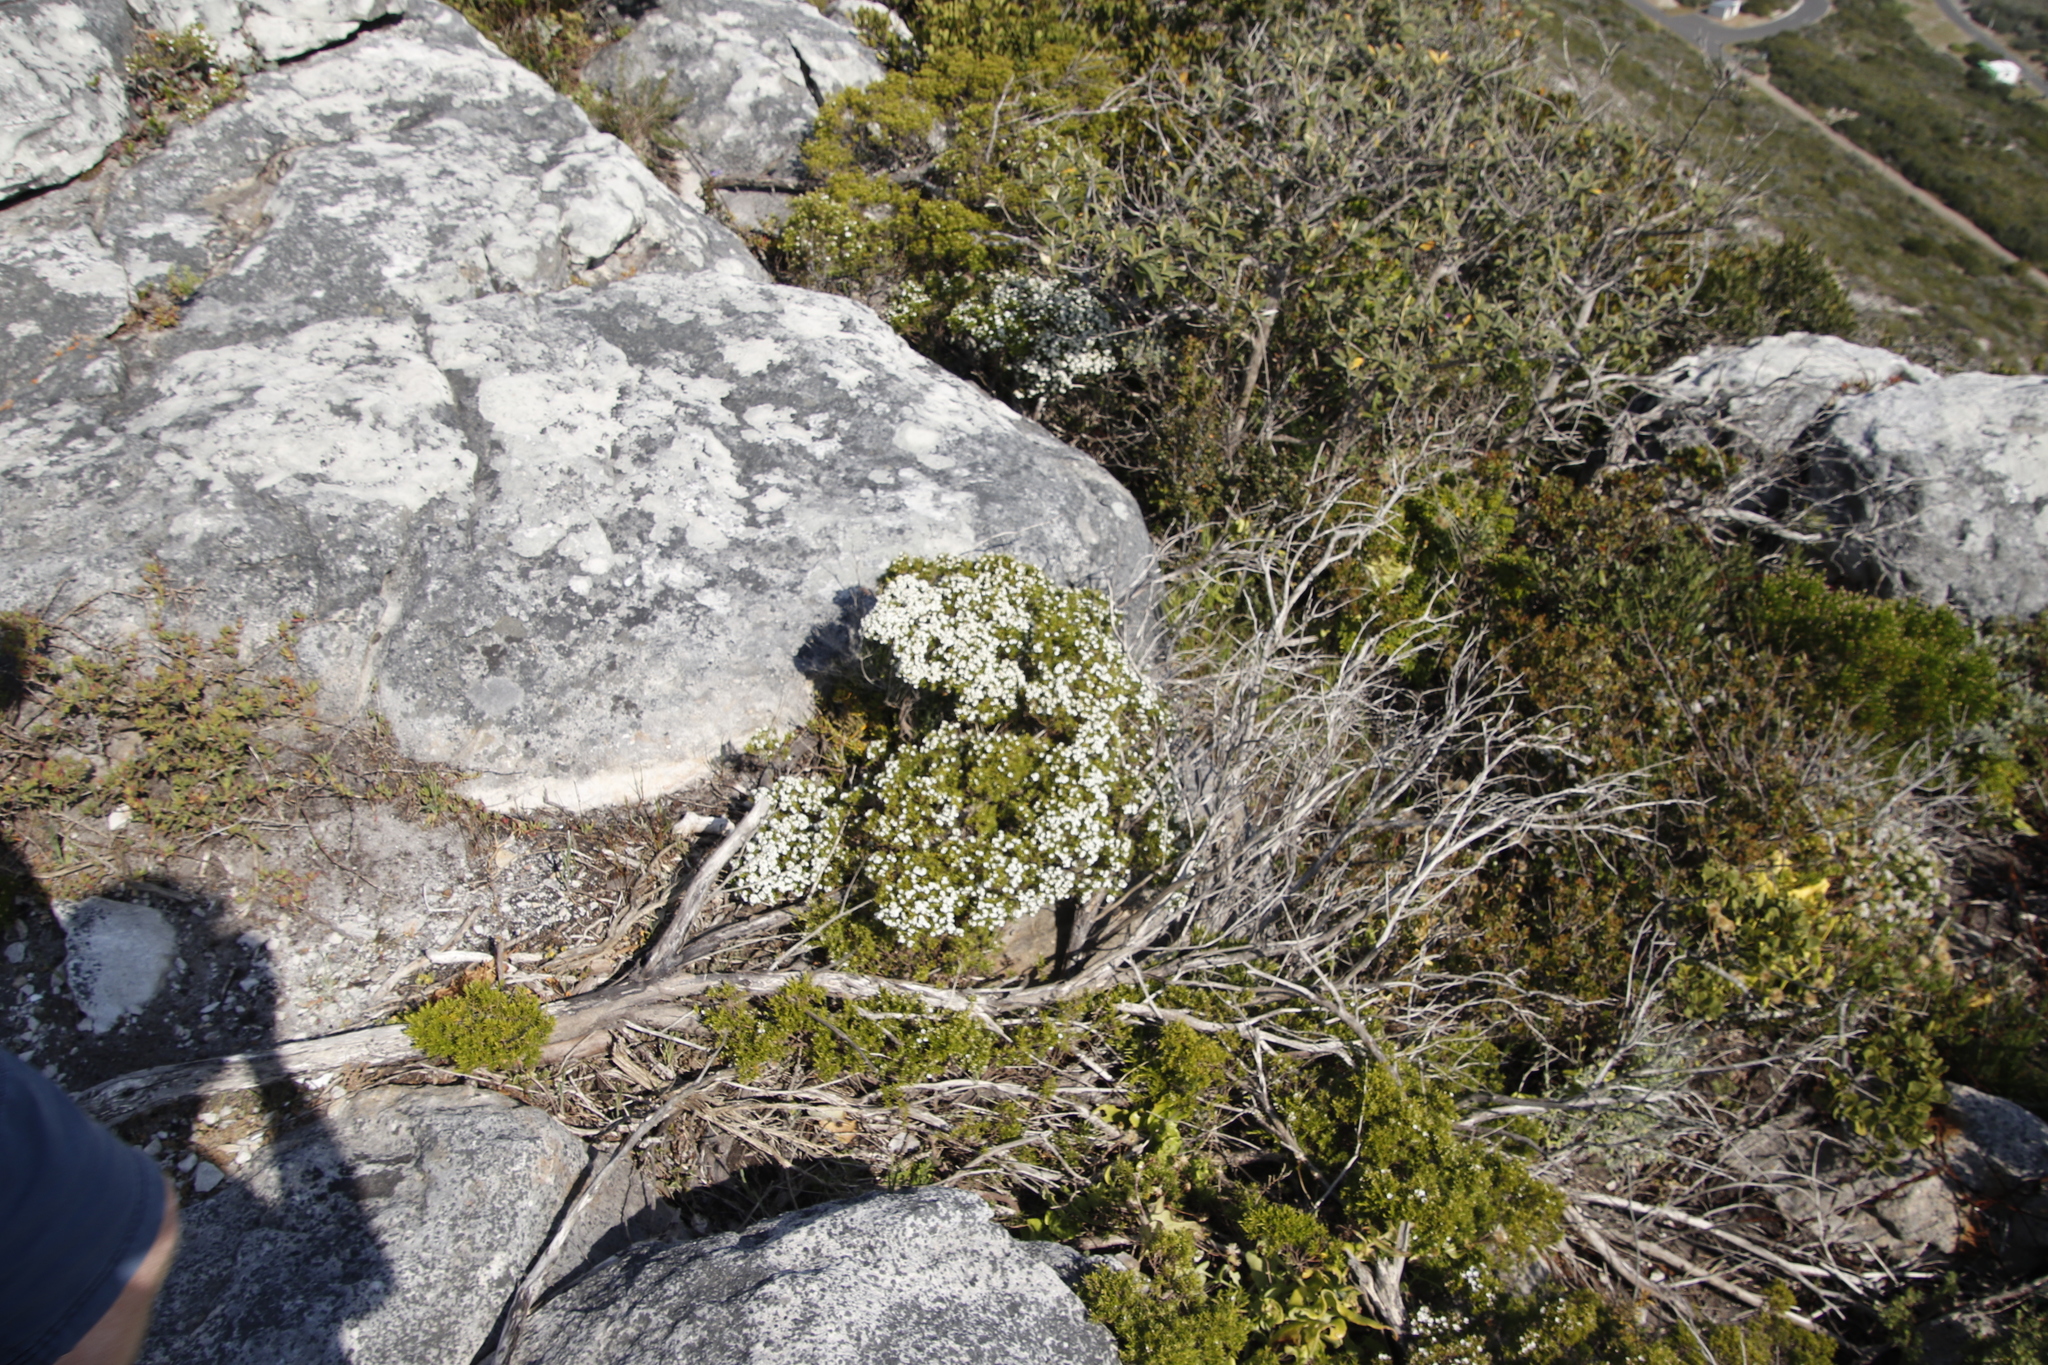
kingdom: Plantae
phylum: Tracheophyta
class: Magnoliopsida
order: Sapindales
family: Rutaceae
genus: Coleonema
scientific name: Coleonema album
